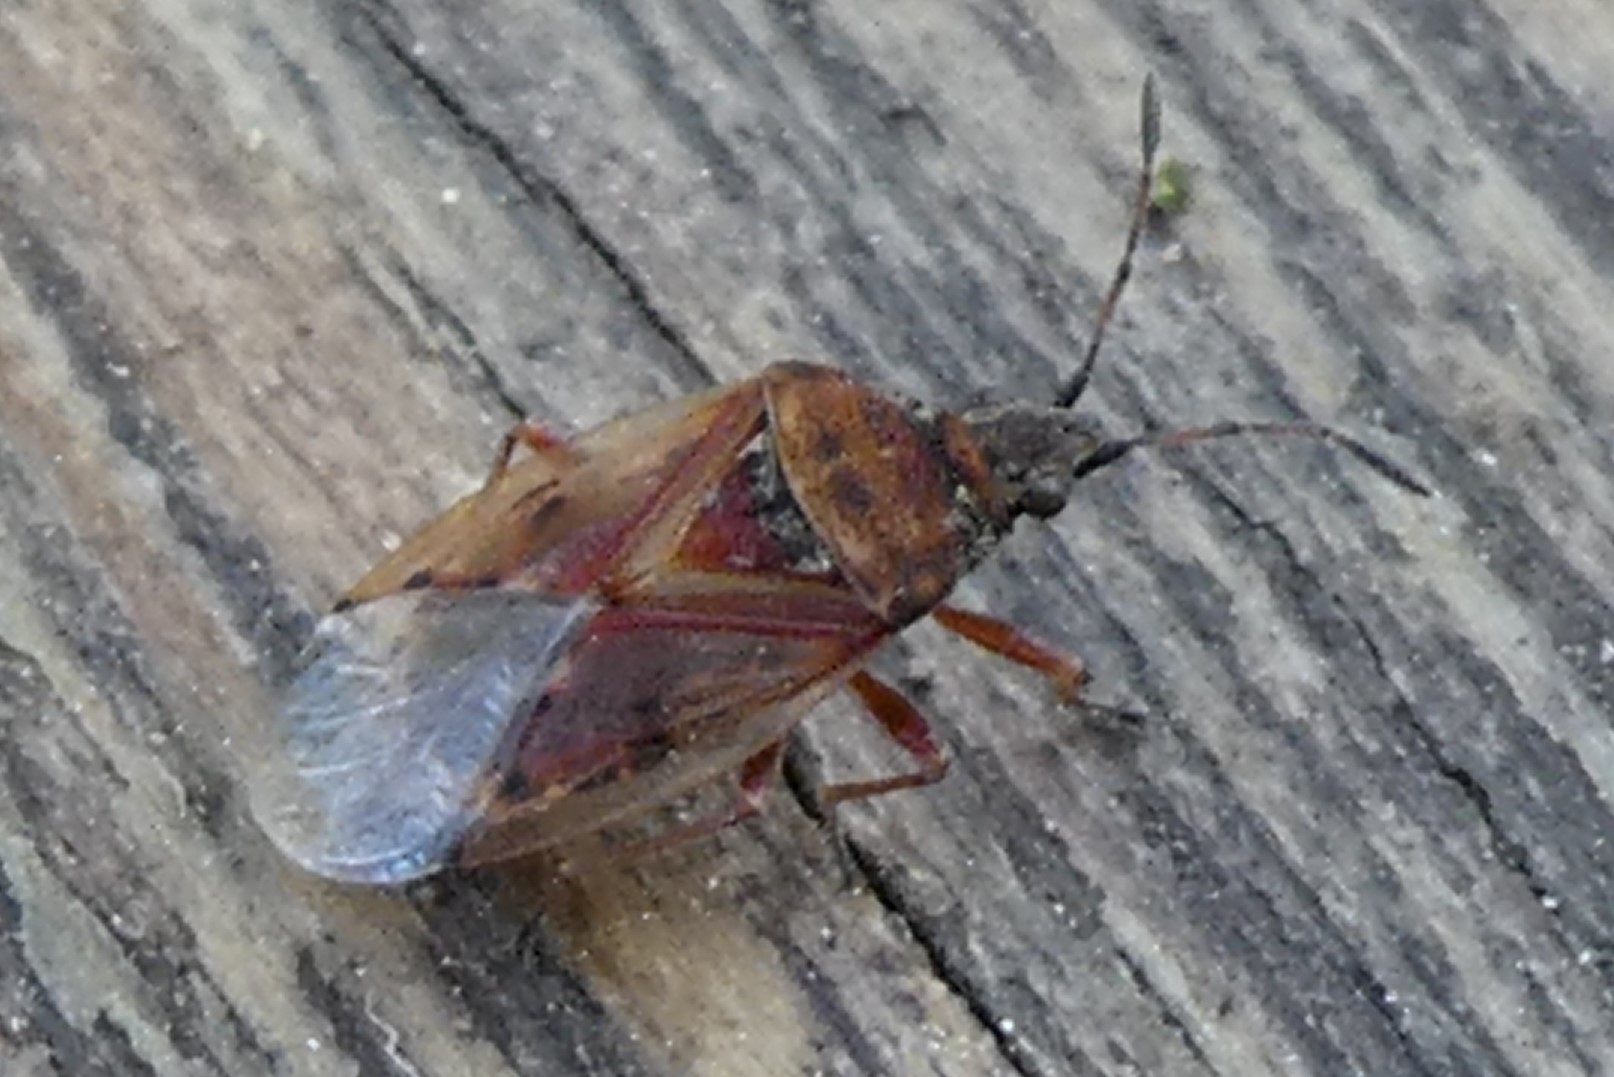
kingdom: Animalia
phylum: Arthropoda
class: Insecta
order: Hemiptera
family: Lygaeidae
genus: Kleidocerys
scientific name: Kleidocerys resedae
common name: Birch catkin bug
